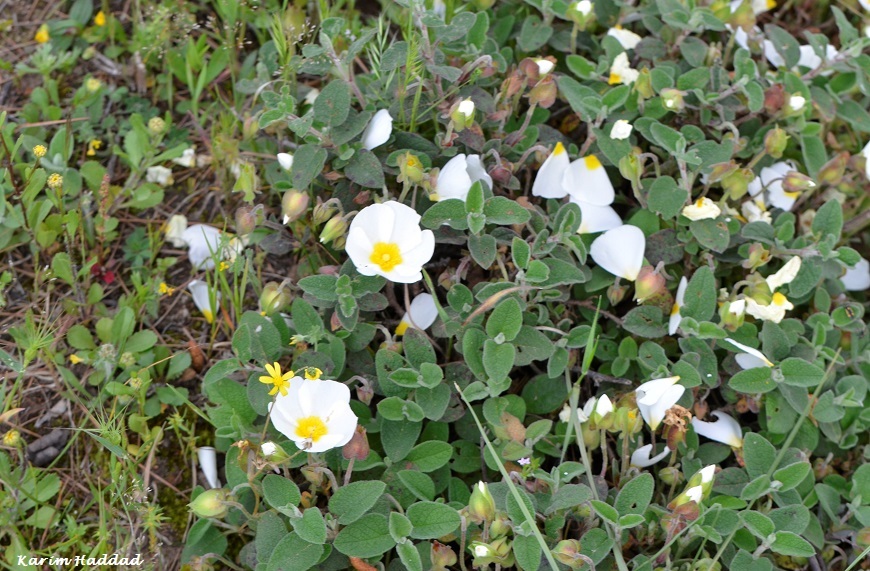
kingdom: Plantae
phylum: Tracheophyta
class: Magnoliopsida
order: Malvales
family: Cistaceae
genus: Cistus
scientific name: Cistus salviifolius
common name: Salvia cistus
